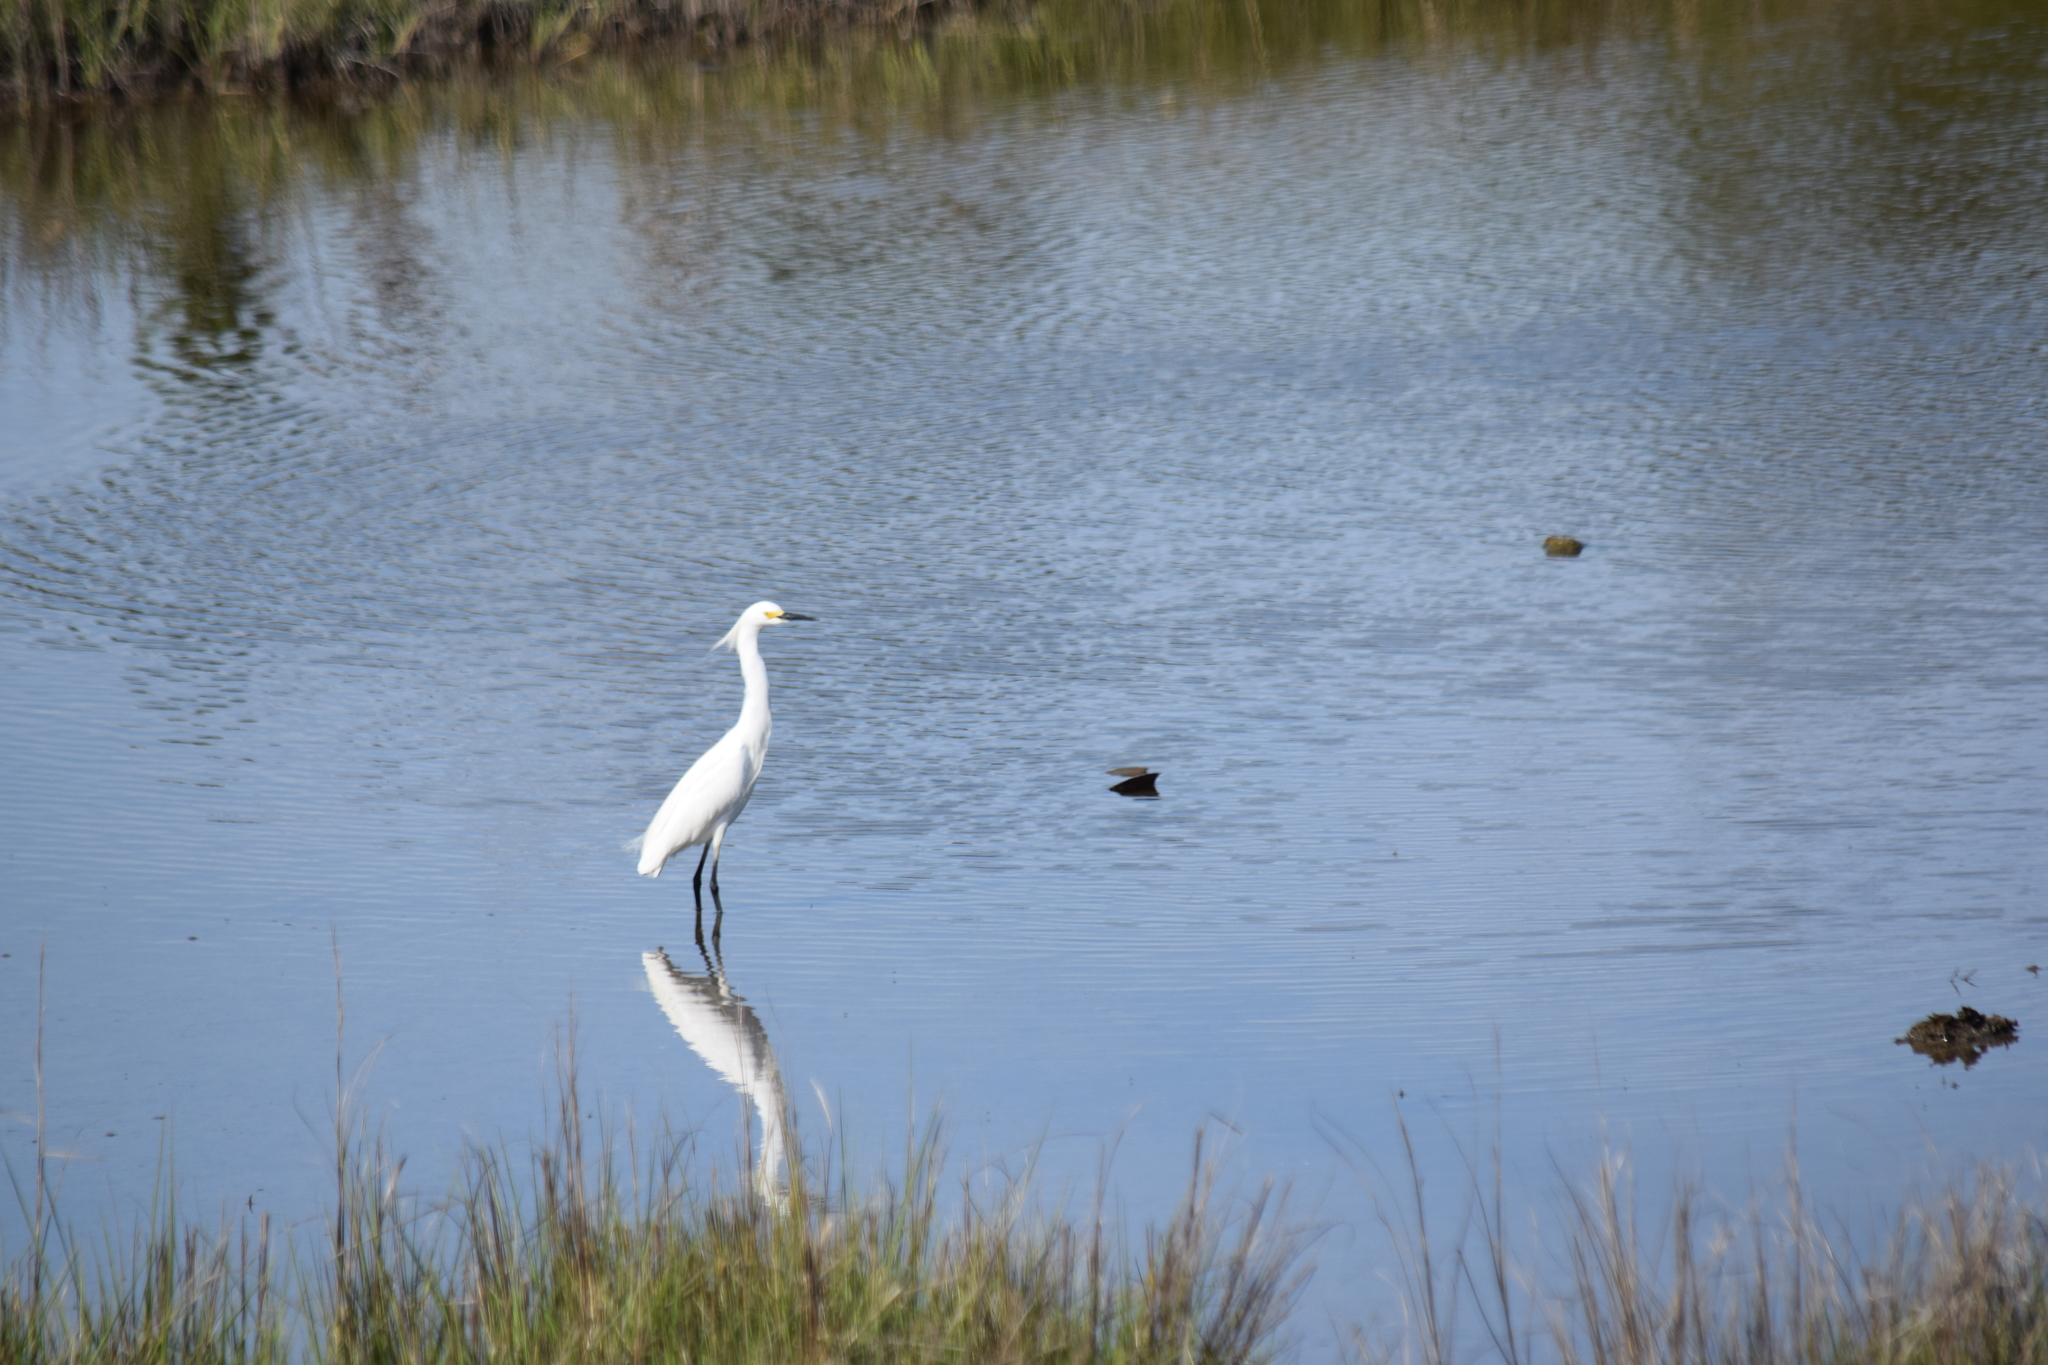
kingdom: Animalia
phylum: Chordata
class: Aves
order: Pelecaniformes
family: Ardeidae
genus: Egretta
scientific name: Egretta thula
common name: Snowy egret
